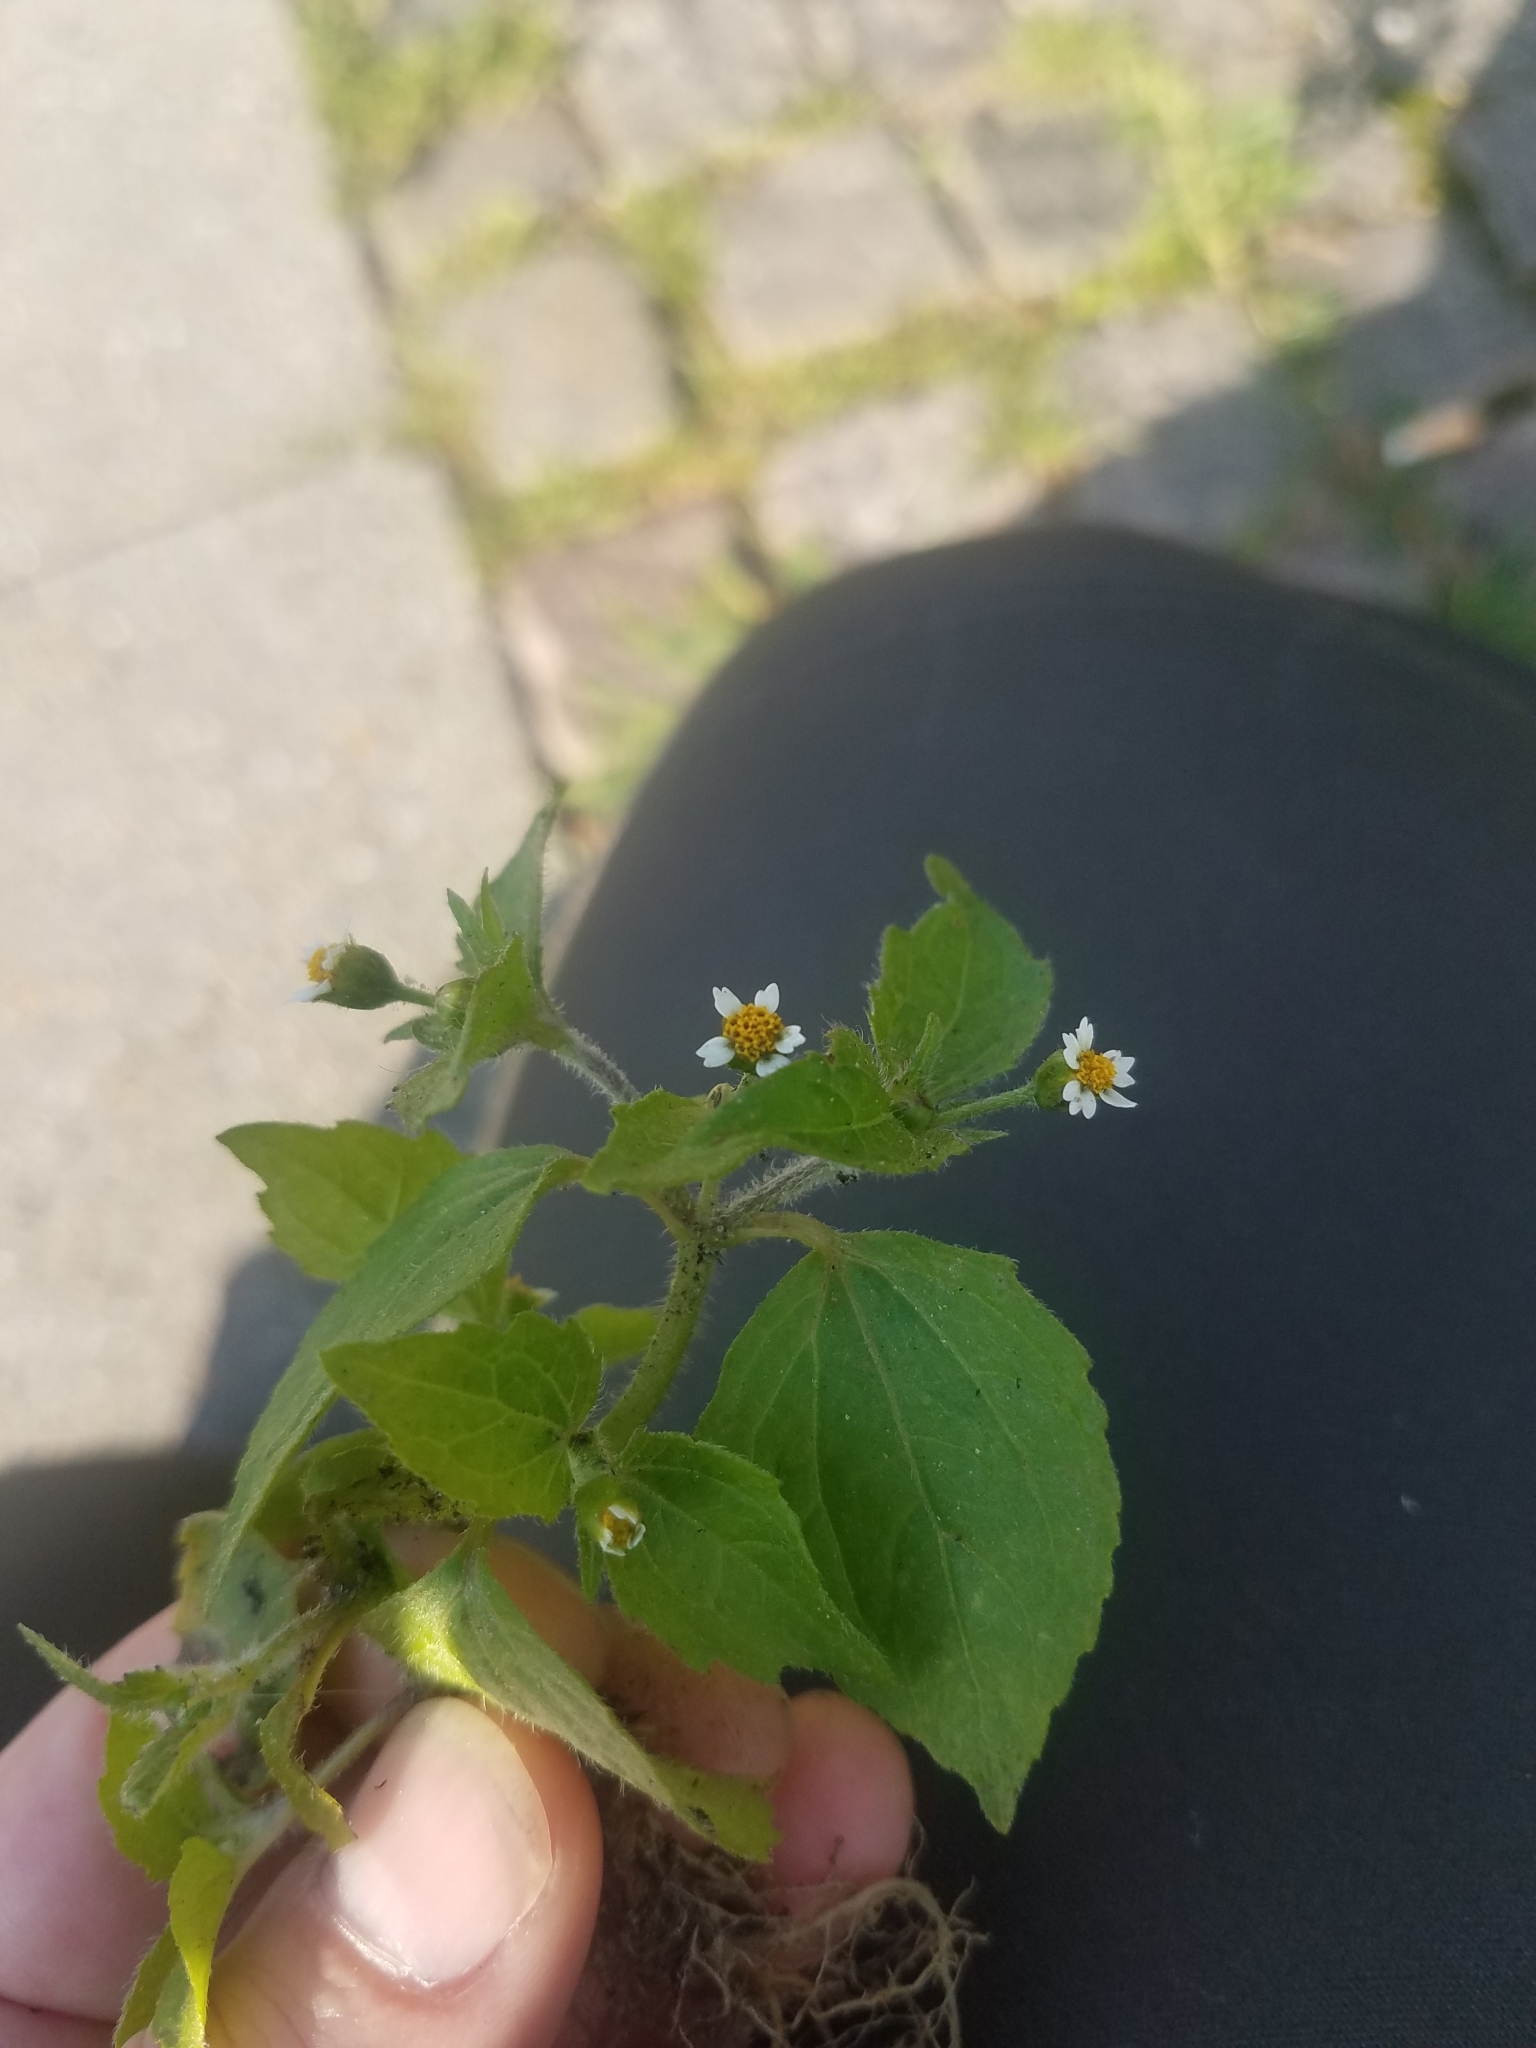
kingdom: Plantae
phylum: Tracheophyta
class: Magnoliopsida
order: Asterales
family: Asteraceae
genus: Galinsoga
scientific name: Galinsoga quadriradiata
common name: Shaggy soldier
